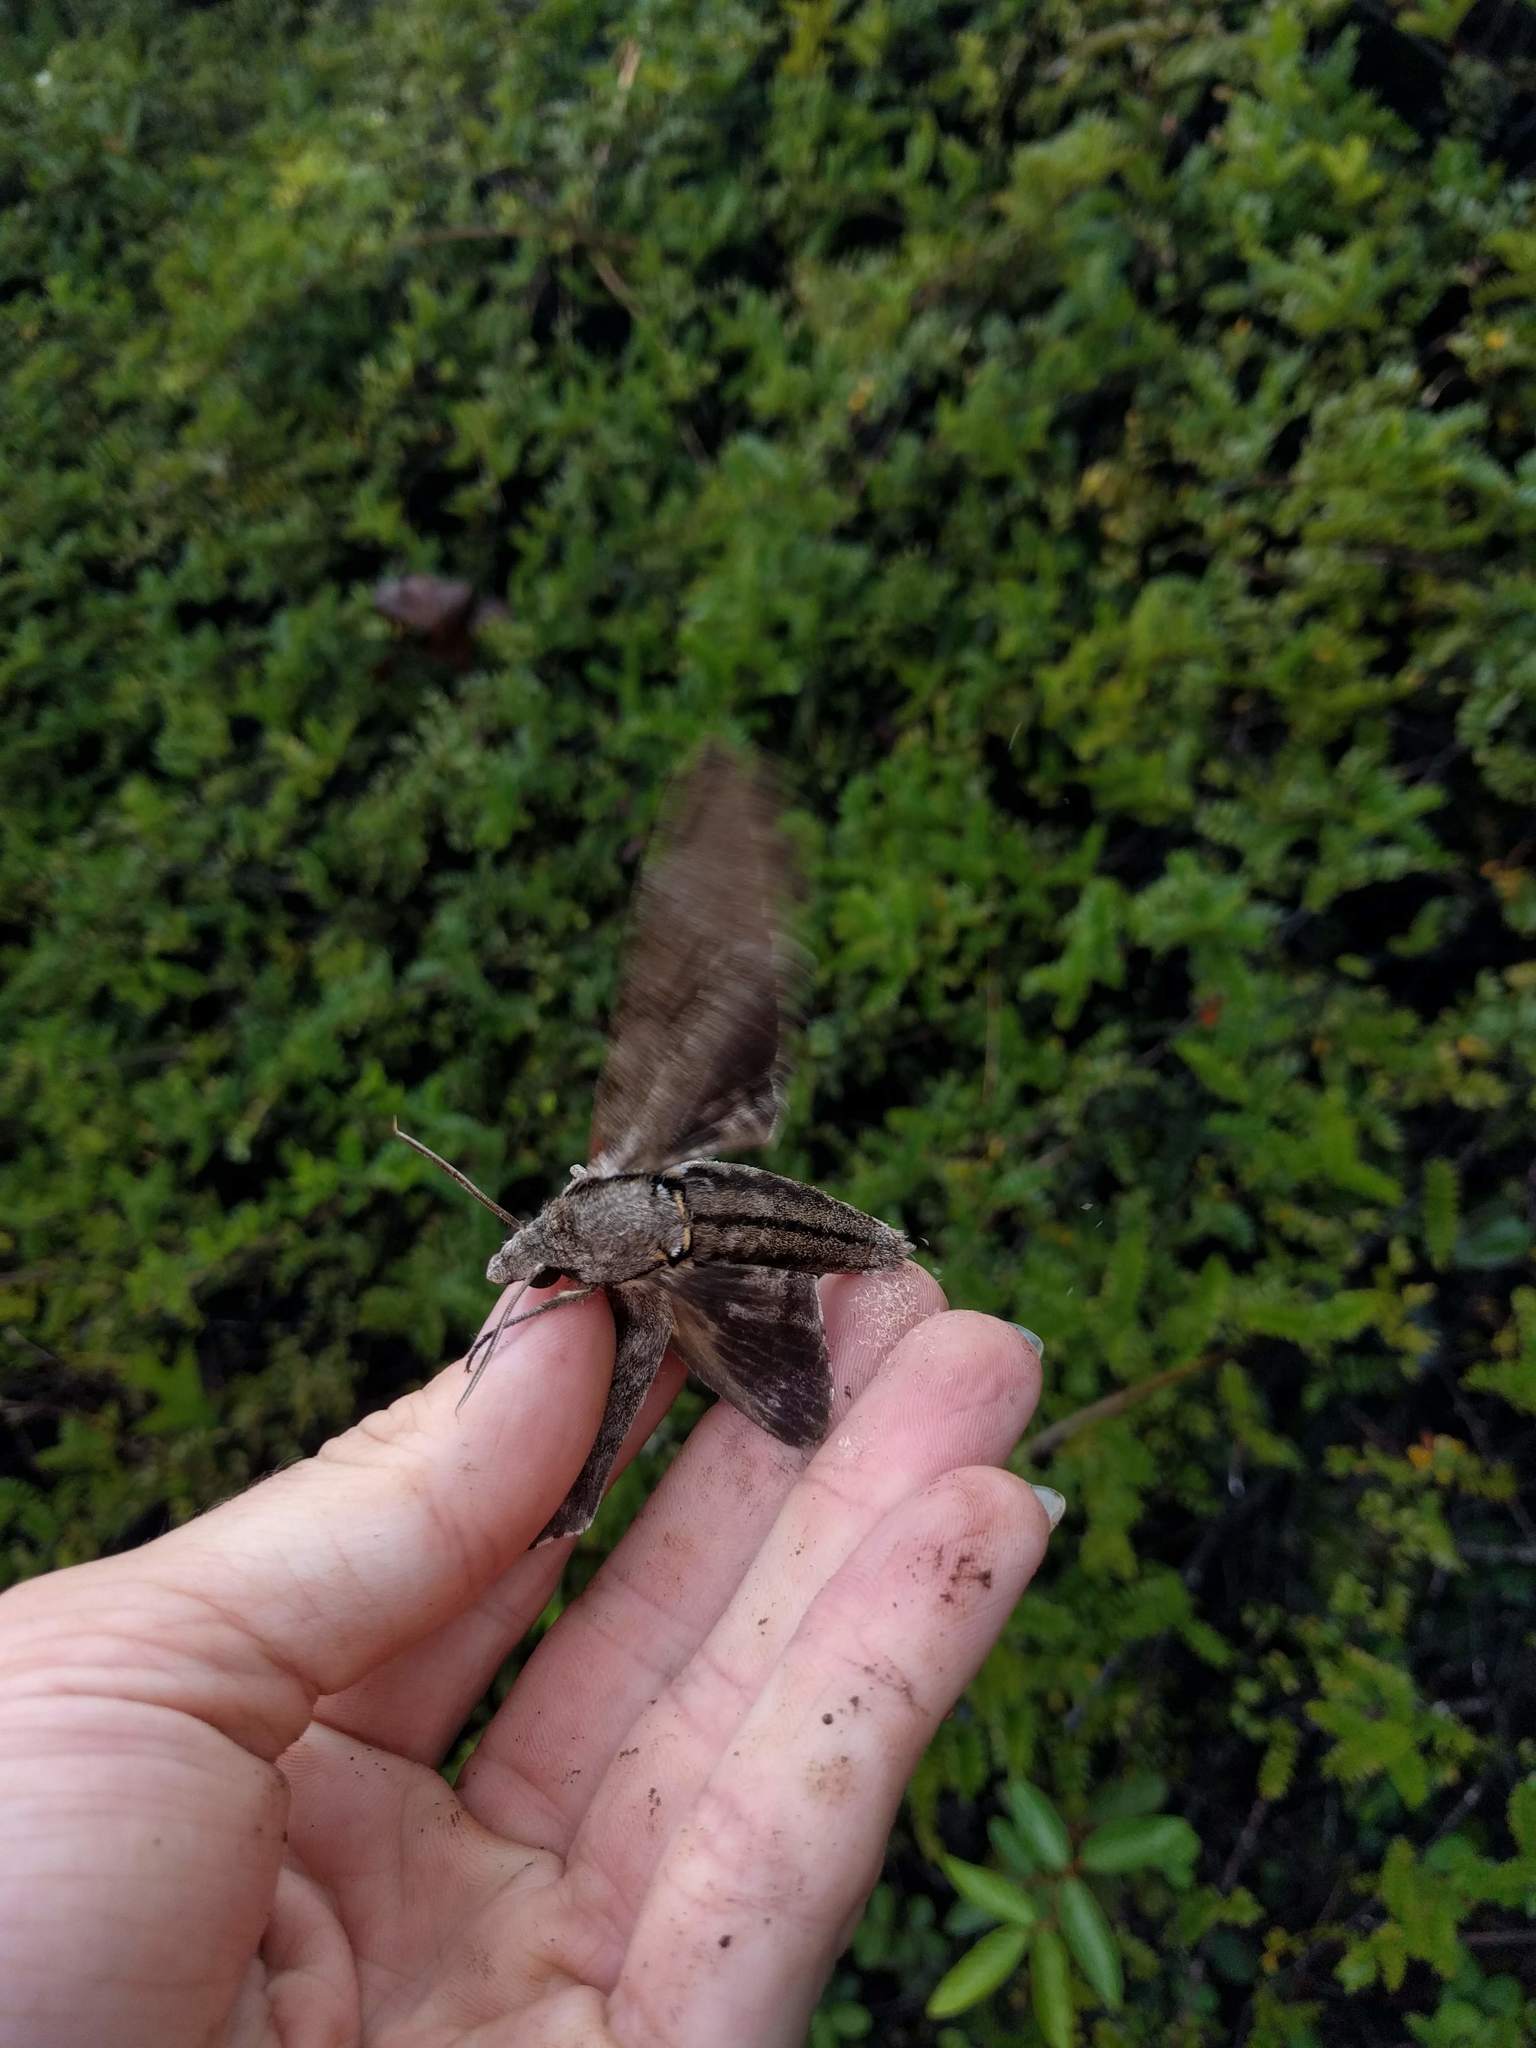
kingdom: Animalia
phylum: Arthropoda
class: Insecta
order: Lepidoptera
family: Sphingidae
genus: Psilogramma
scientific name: Psilogramma increta
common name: Gray hawk moth
